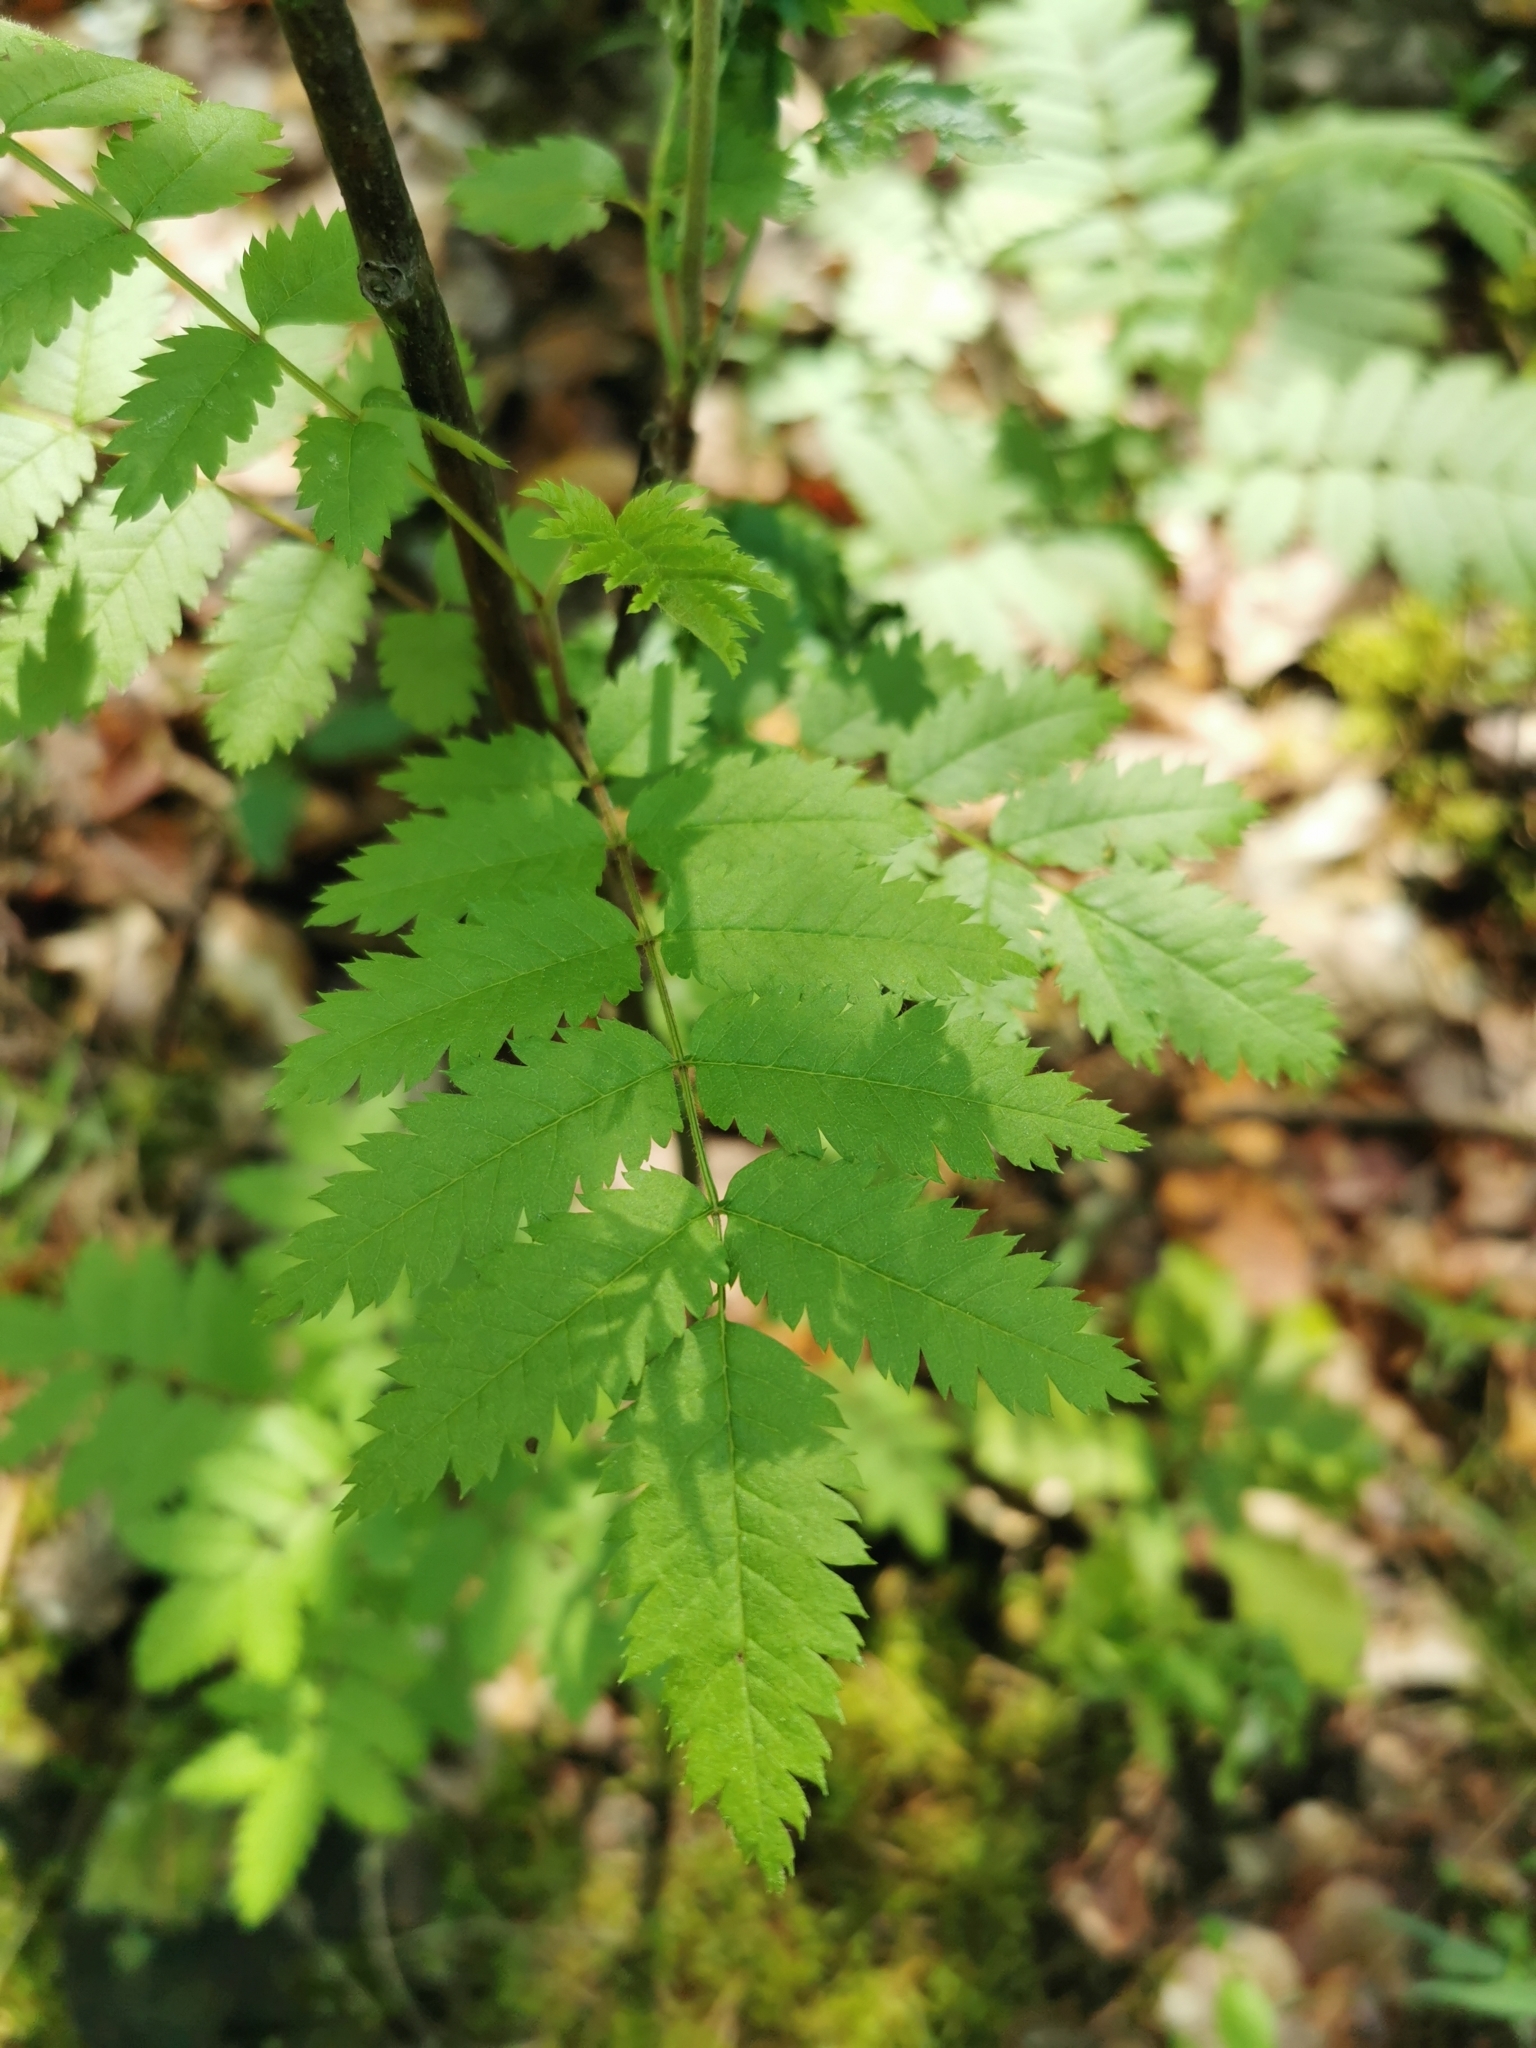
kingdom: Plantae
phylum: Tracheophyta
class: Magnoliopsida
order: Rosales
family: Rosaceae
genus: Sorbus
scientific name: Sorbus aucuparia
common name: Rowan
